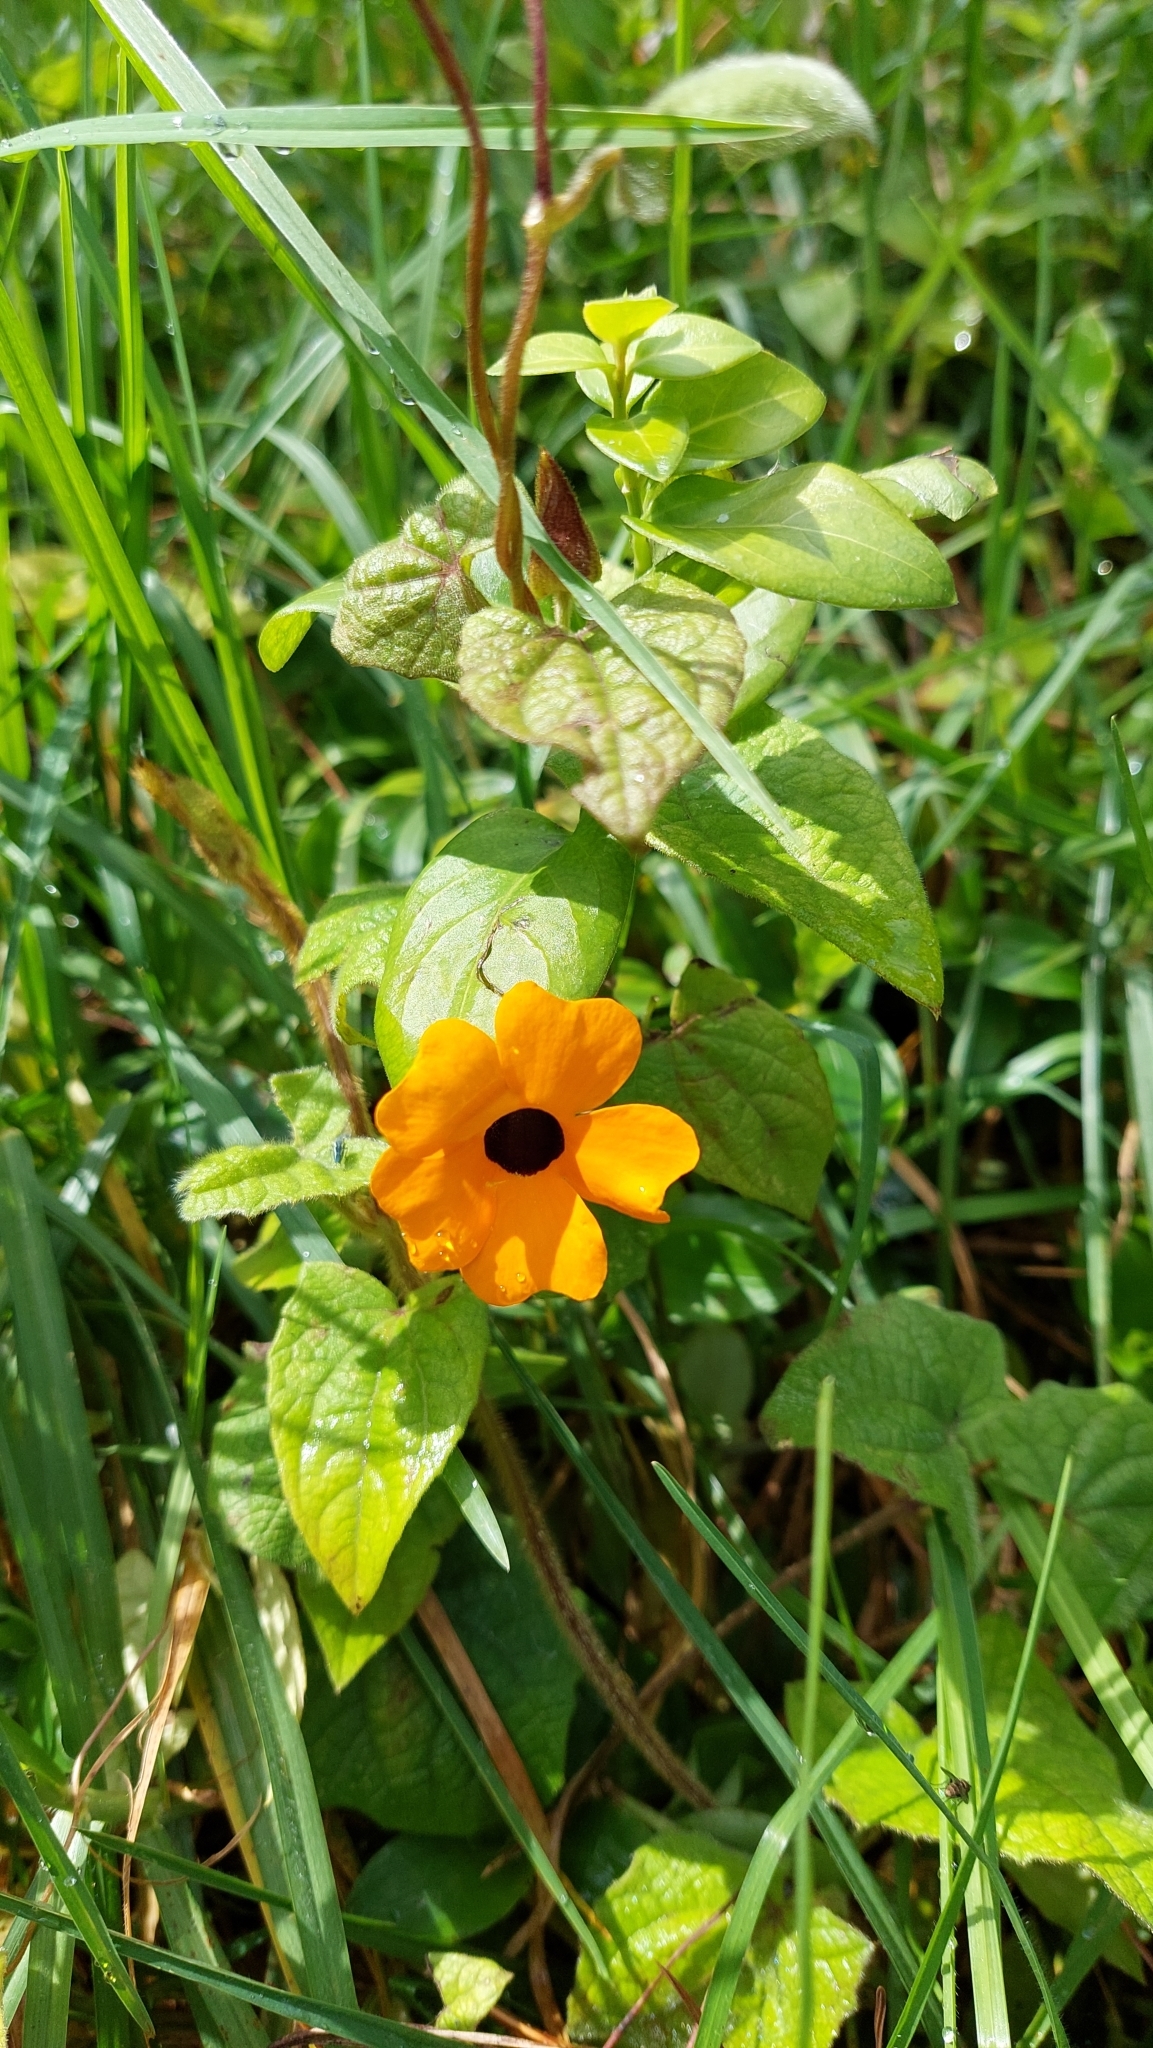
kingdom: Plantae
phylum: Tracheophyta
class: Magnoliopsida
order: Lamiales
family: Acanthaceae
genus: Thunbergia
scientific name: Thunbergia alata
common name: Blackeyed susan vine
